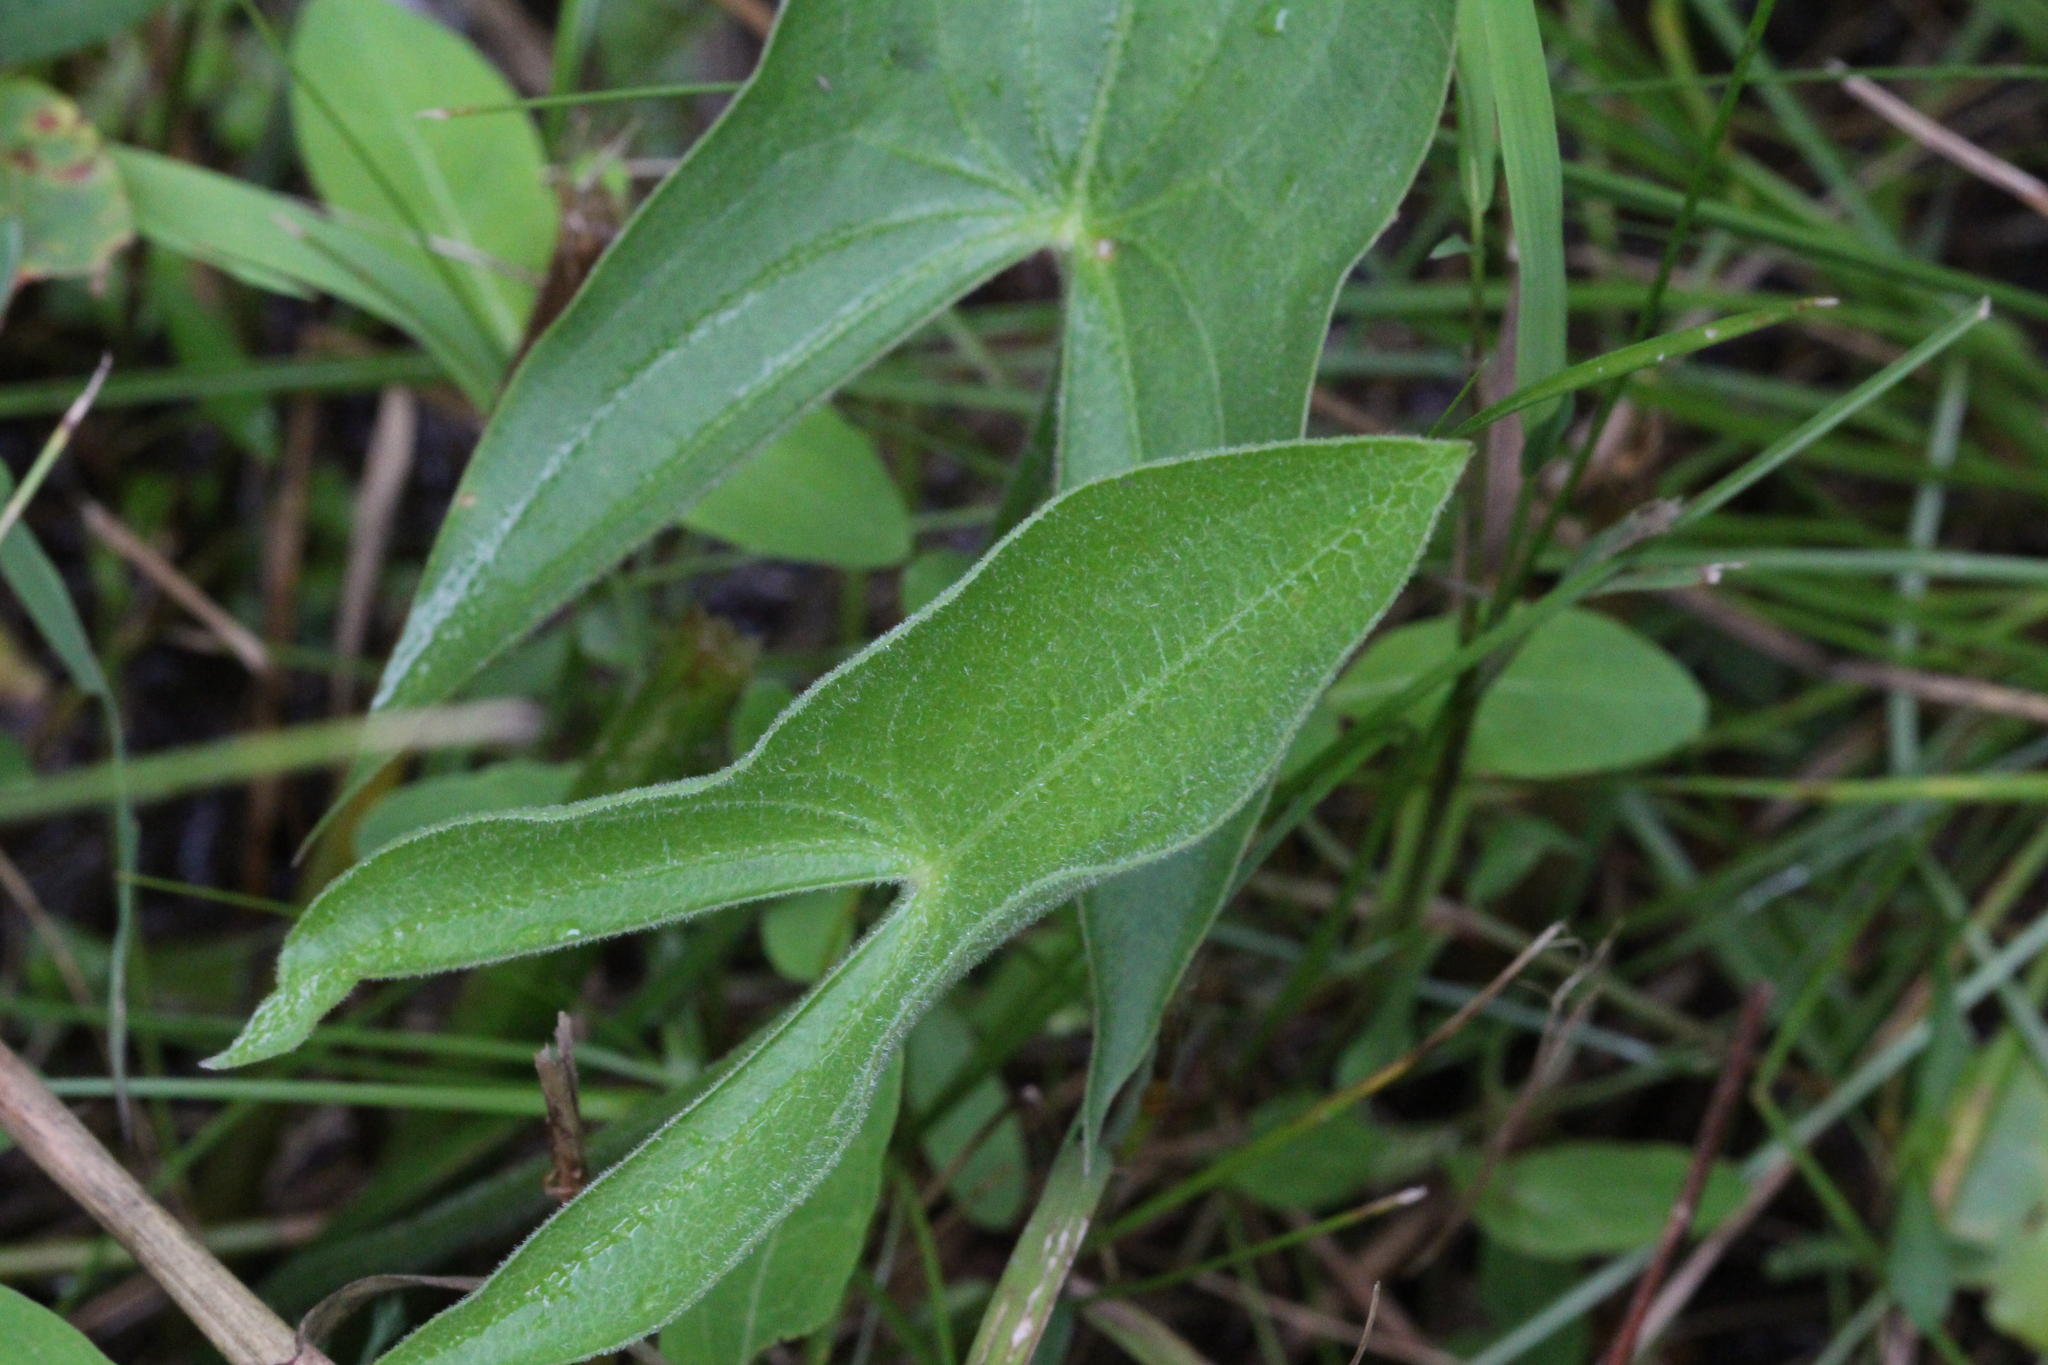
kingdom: Plantae
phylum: Tracheophyta
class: Liliopsida
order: Alismatales
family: Alismataceae
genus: Sagittaria
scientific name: Sagittaria latifolia
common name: Duck-potato
